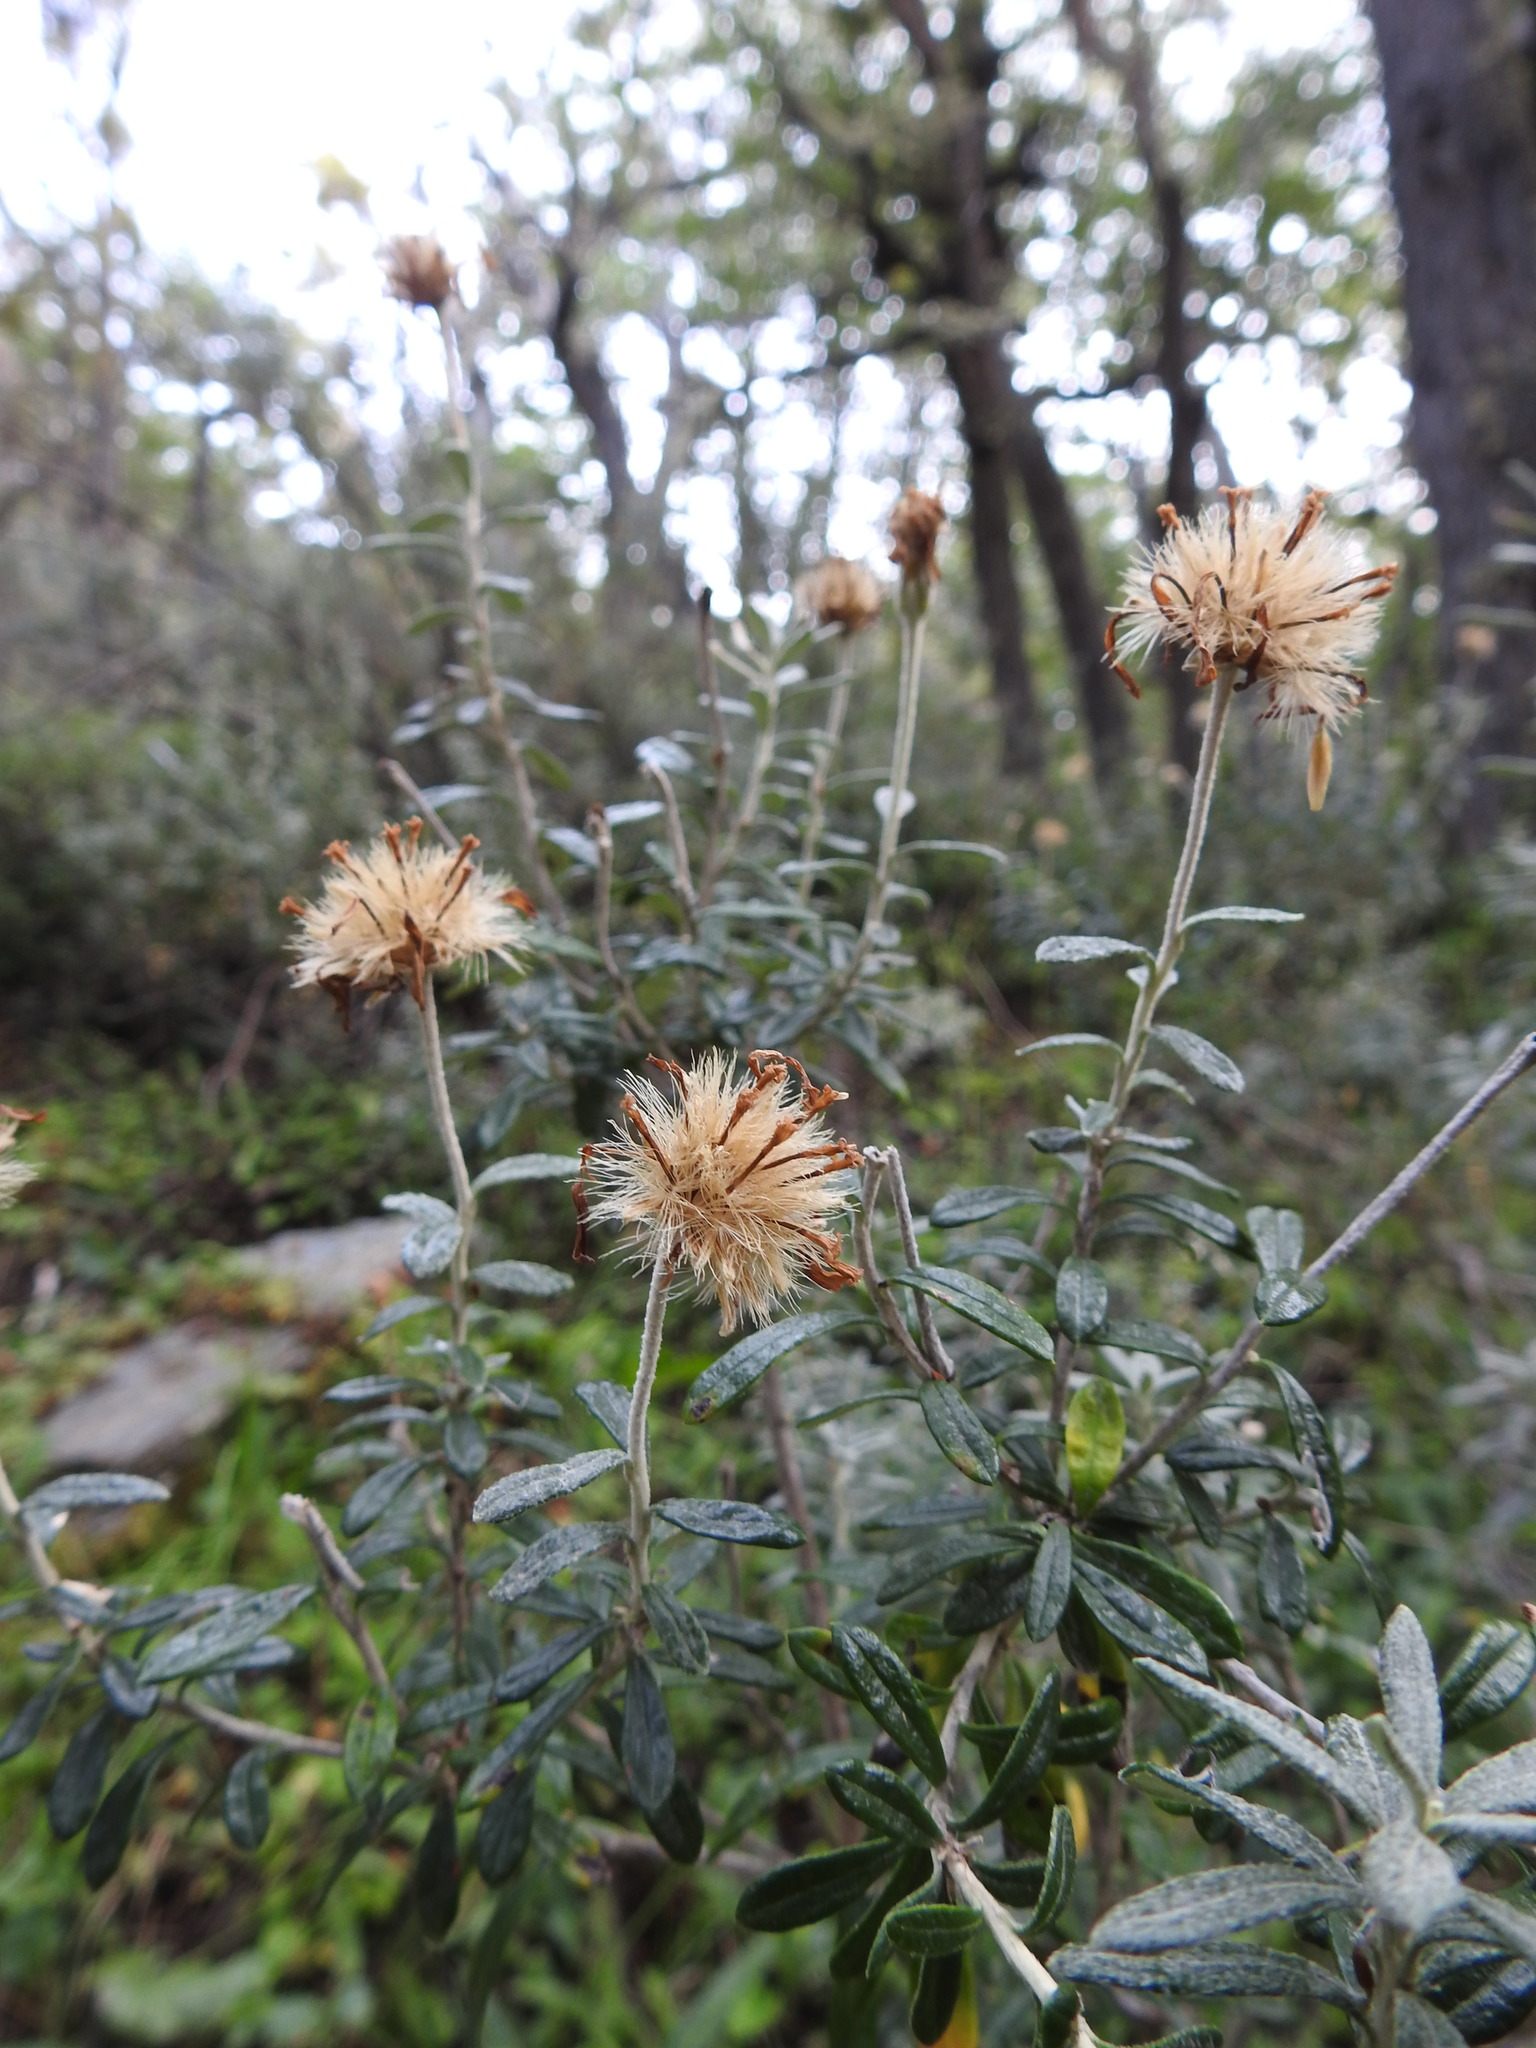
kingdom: Plantae
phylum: Tracheophyta
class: Magnoliopsida
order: Asterales
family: Asteraceae
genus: Chiliotrichum
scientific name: Chiliotrichum diffusum
